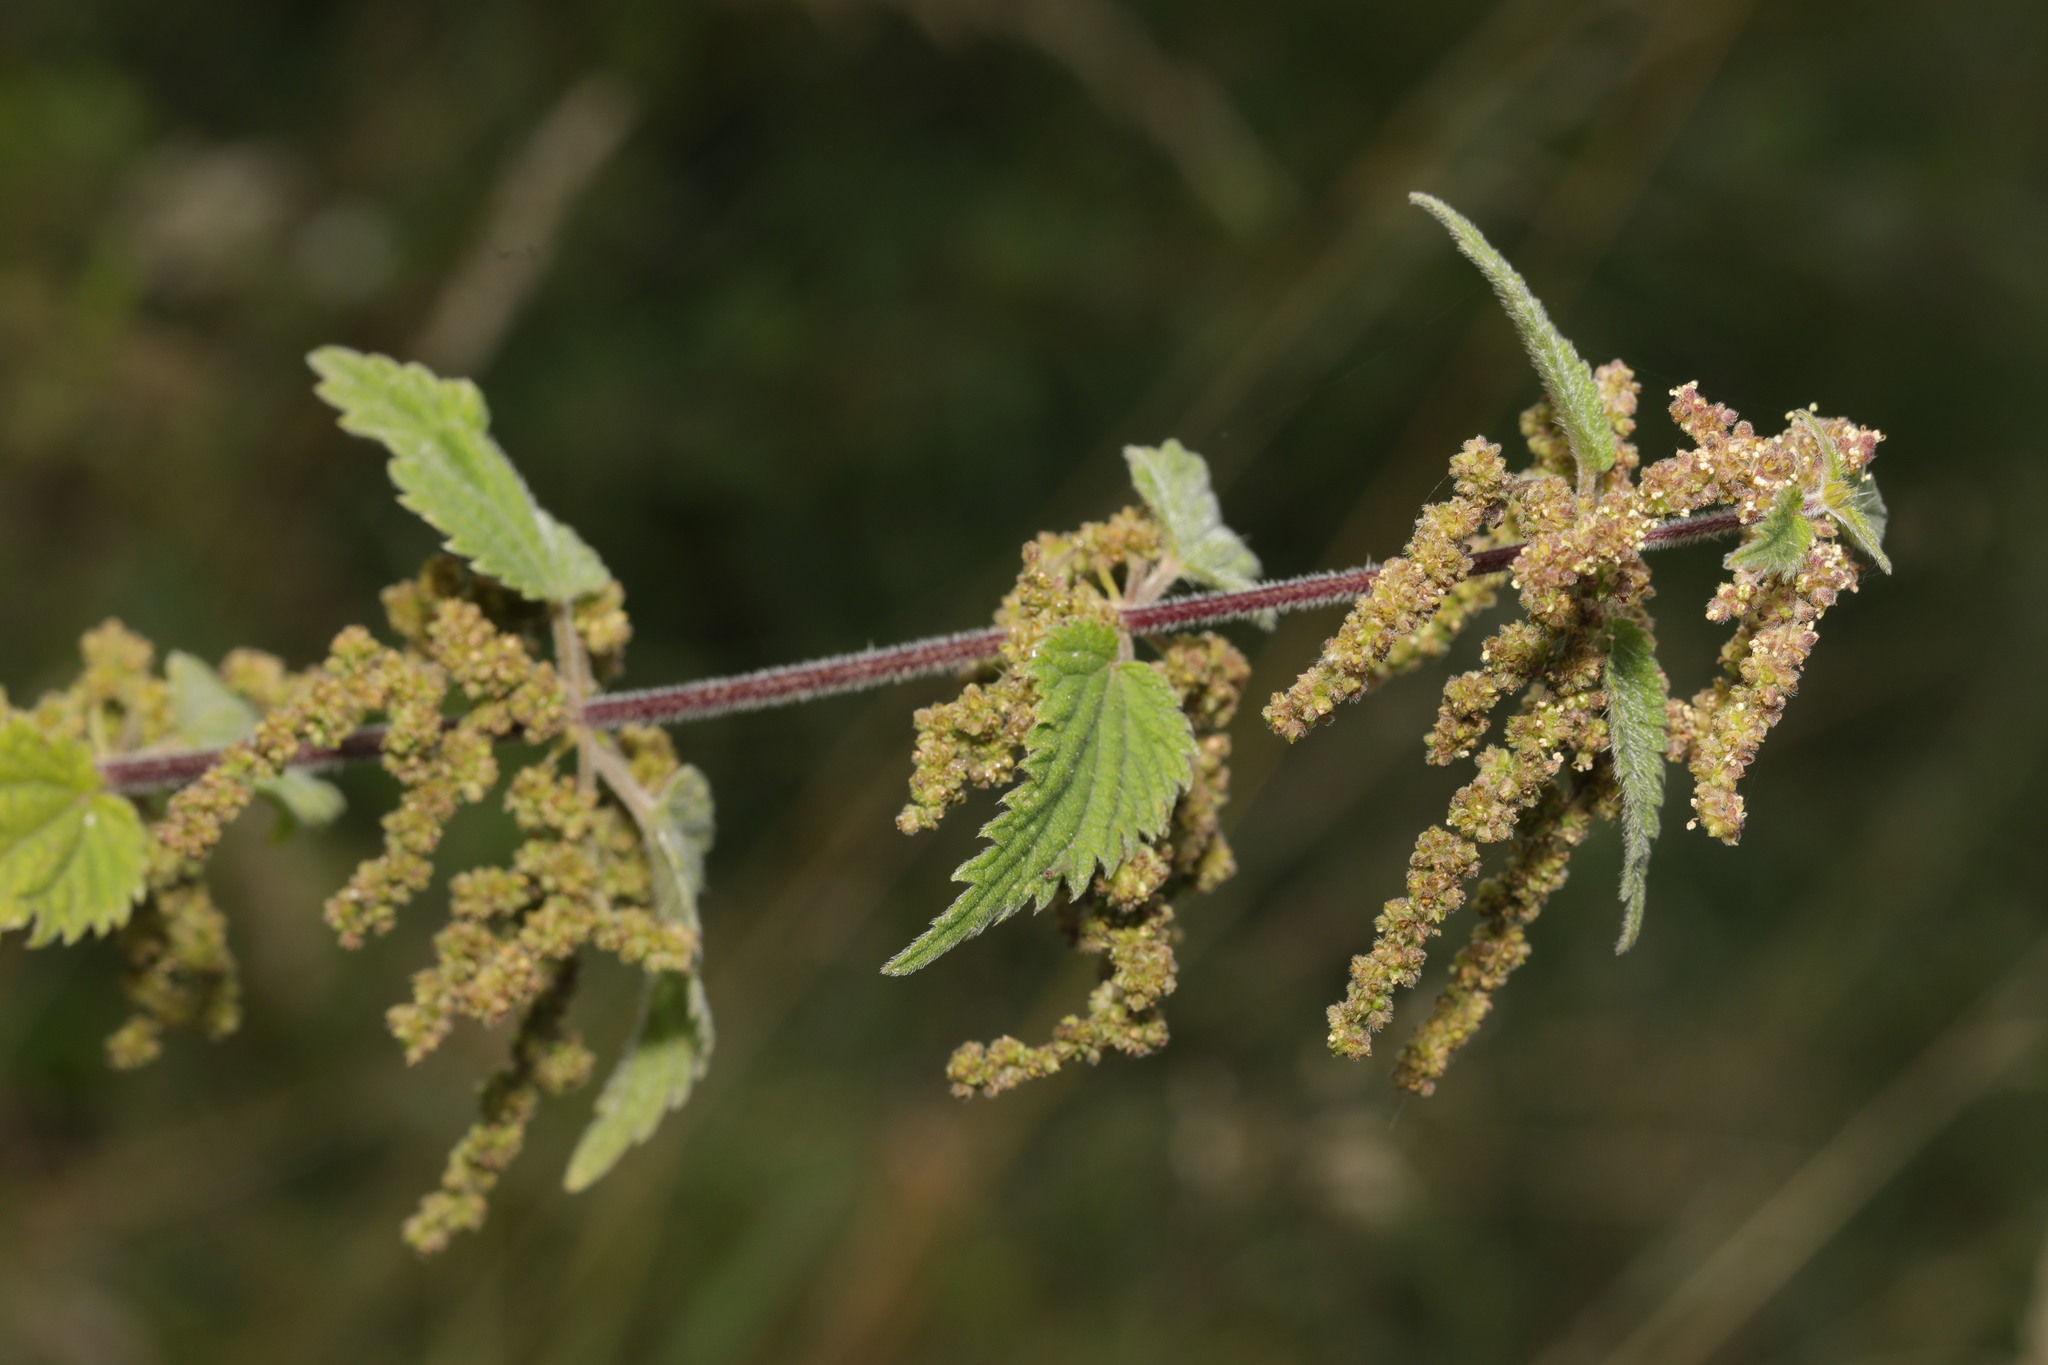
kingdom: Plantae
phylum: Tracheophyta
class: Magnoliopsida
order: Rosales
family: Urticaceae
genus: Urtica
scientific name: Urtica dioica
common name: Common nettle
